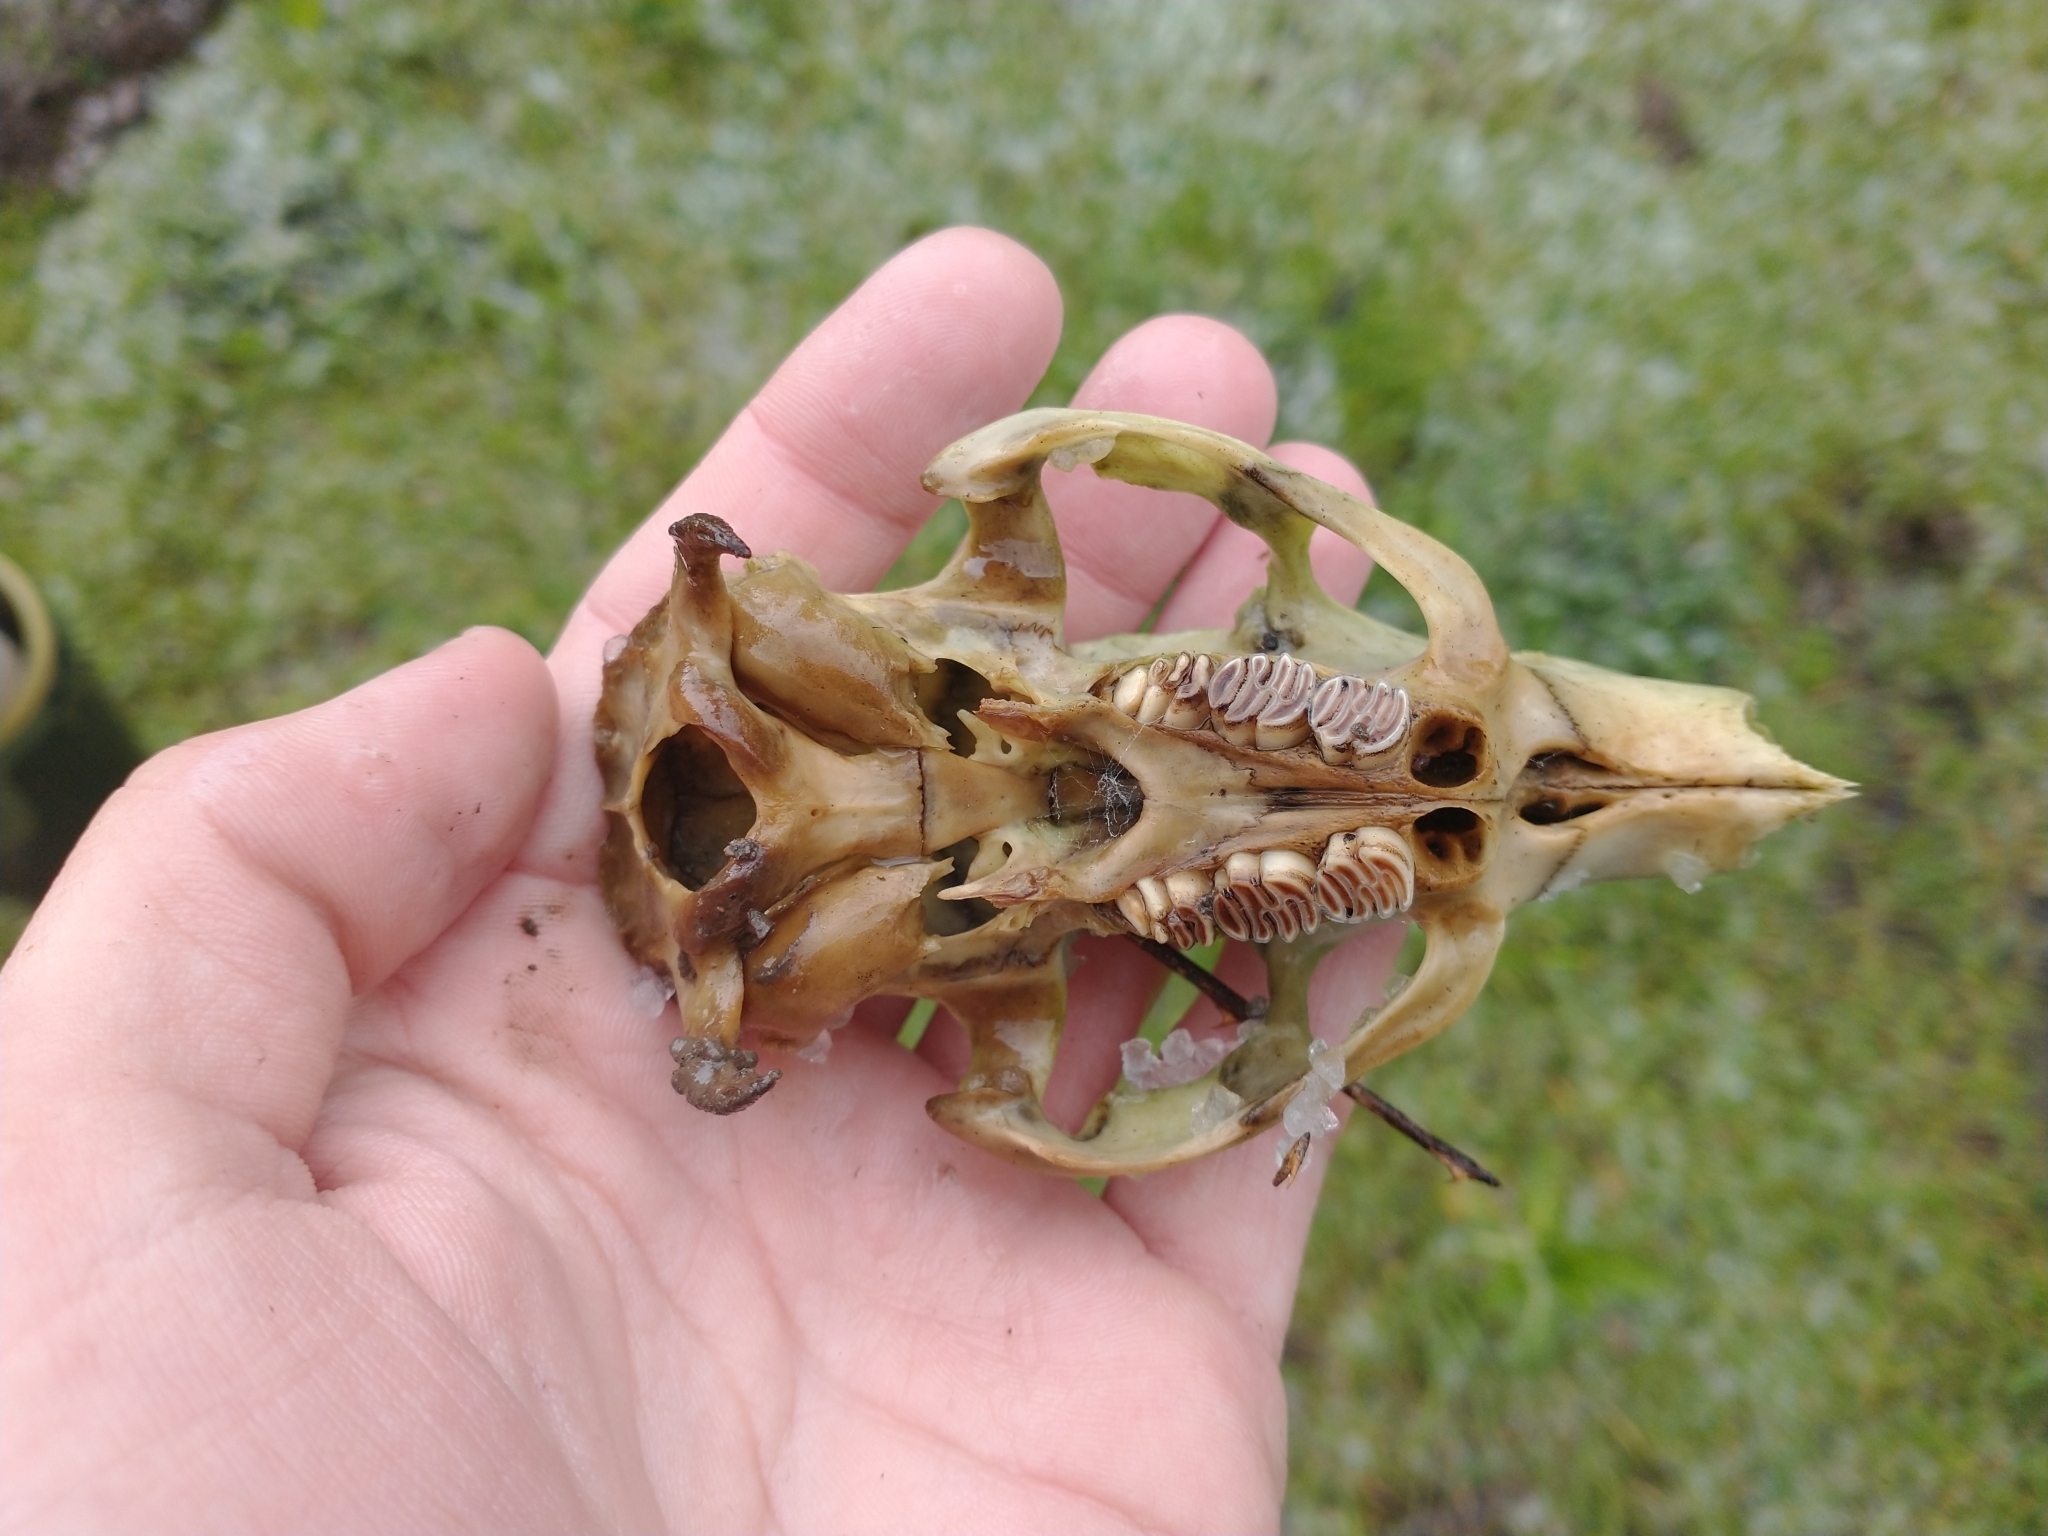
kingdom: Animalia
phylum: Chordata
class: Mammalia
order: Rodentia
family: Myocastoridae
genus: Myocastor
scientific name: Myocastor coypus
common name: Coypu
